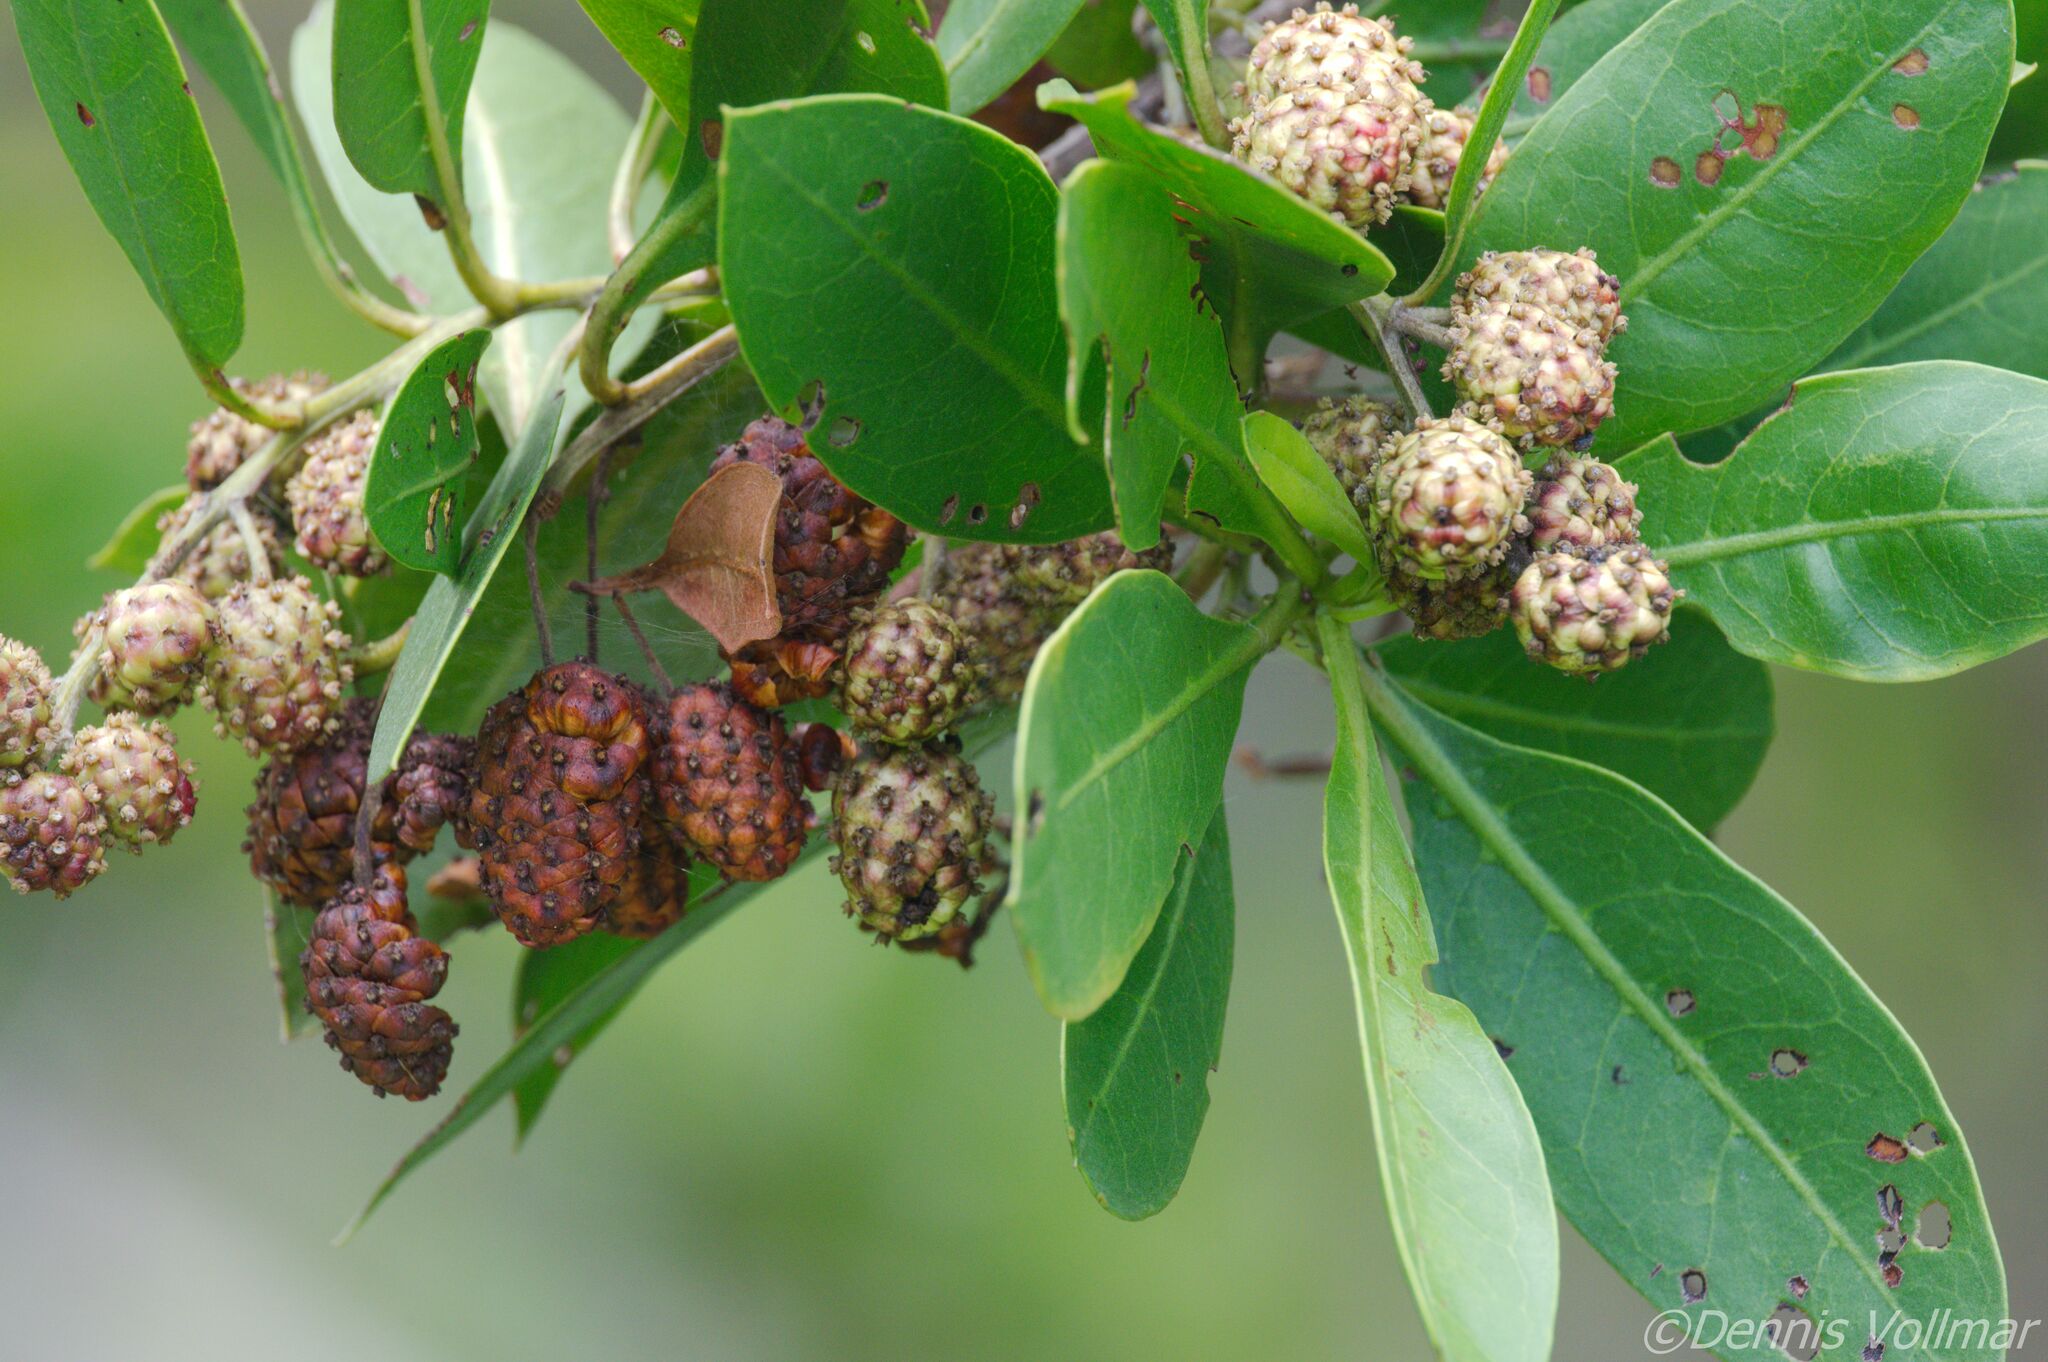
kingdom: Plantae
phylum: Tracheophyta
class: Magnoliopsida
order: Myrtales
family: Combretaceae
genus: Conocarpus
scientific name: Conocarpus erectus
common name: Button mangrove
